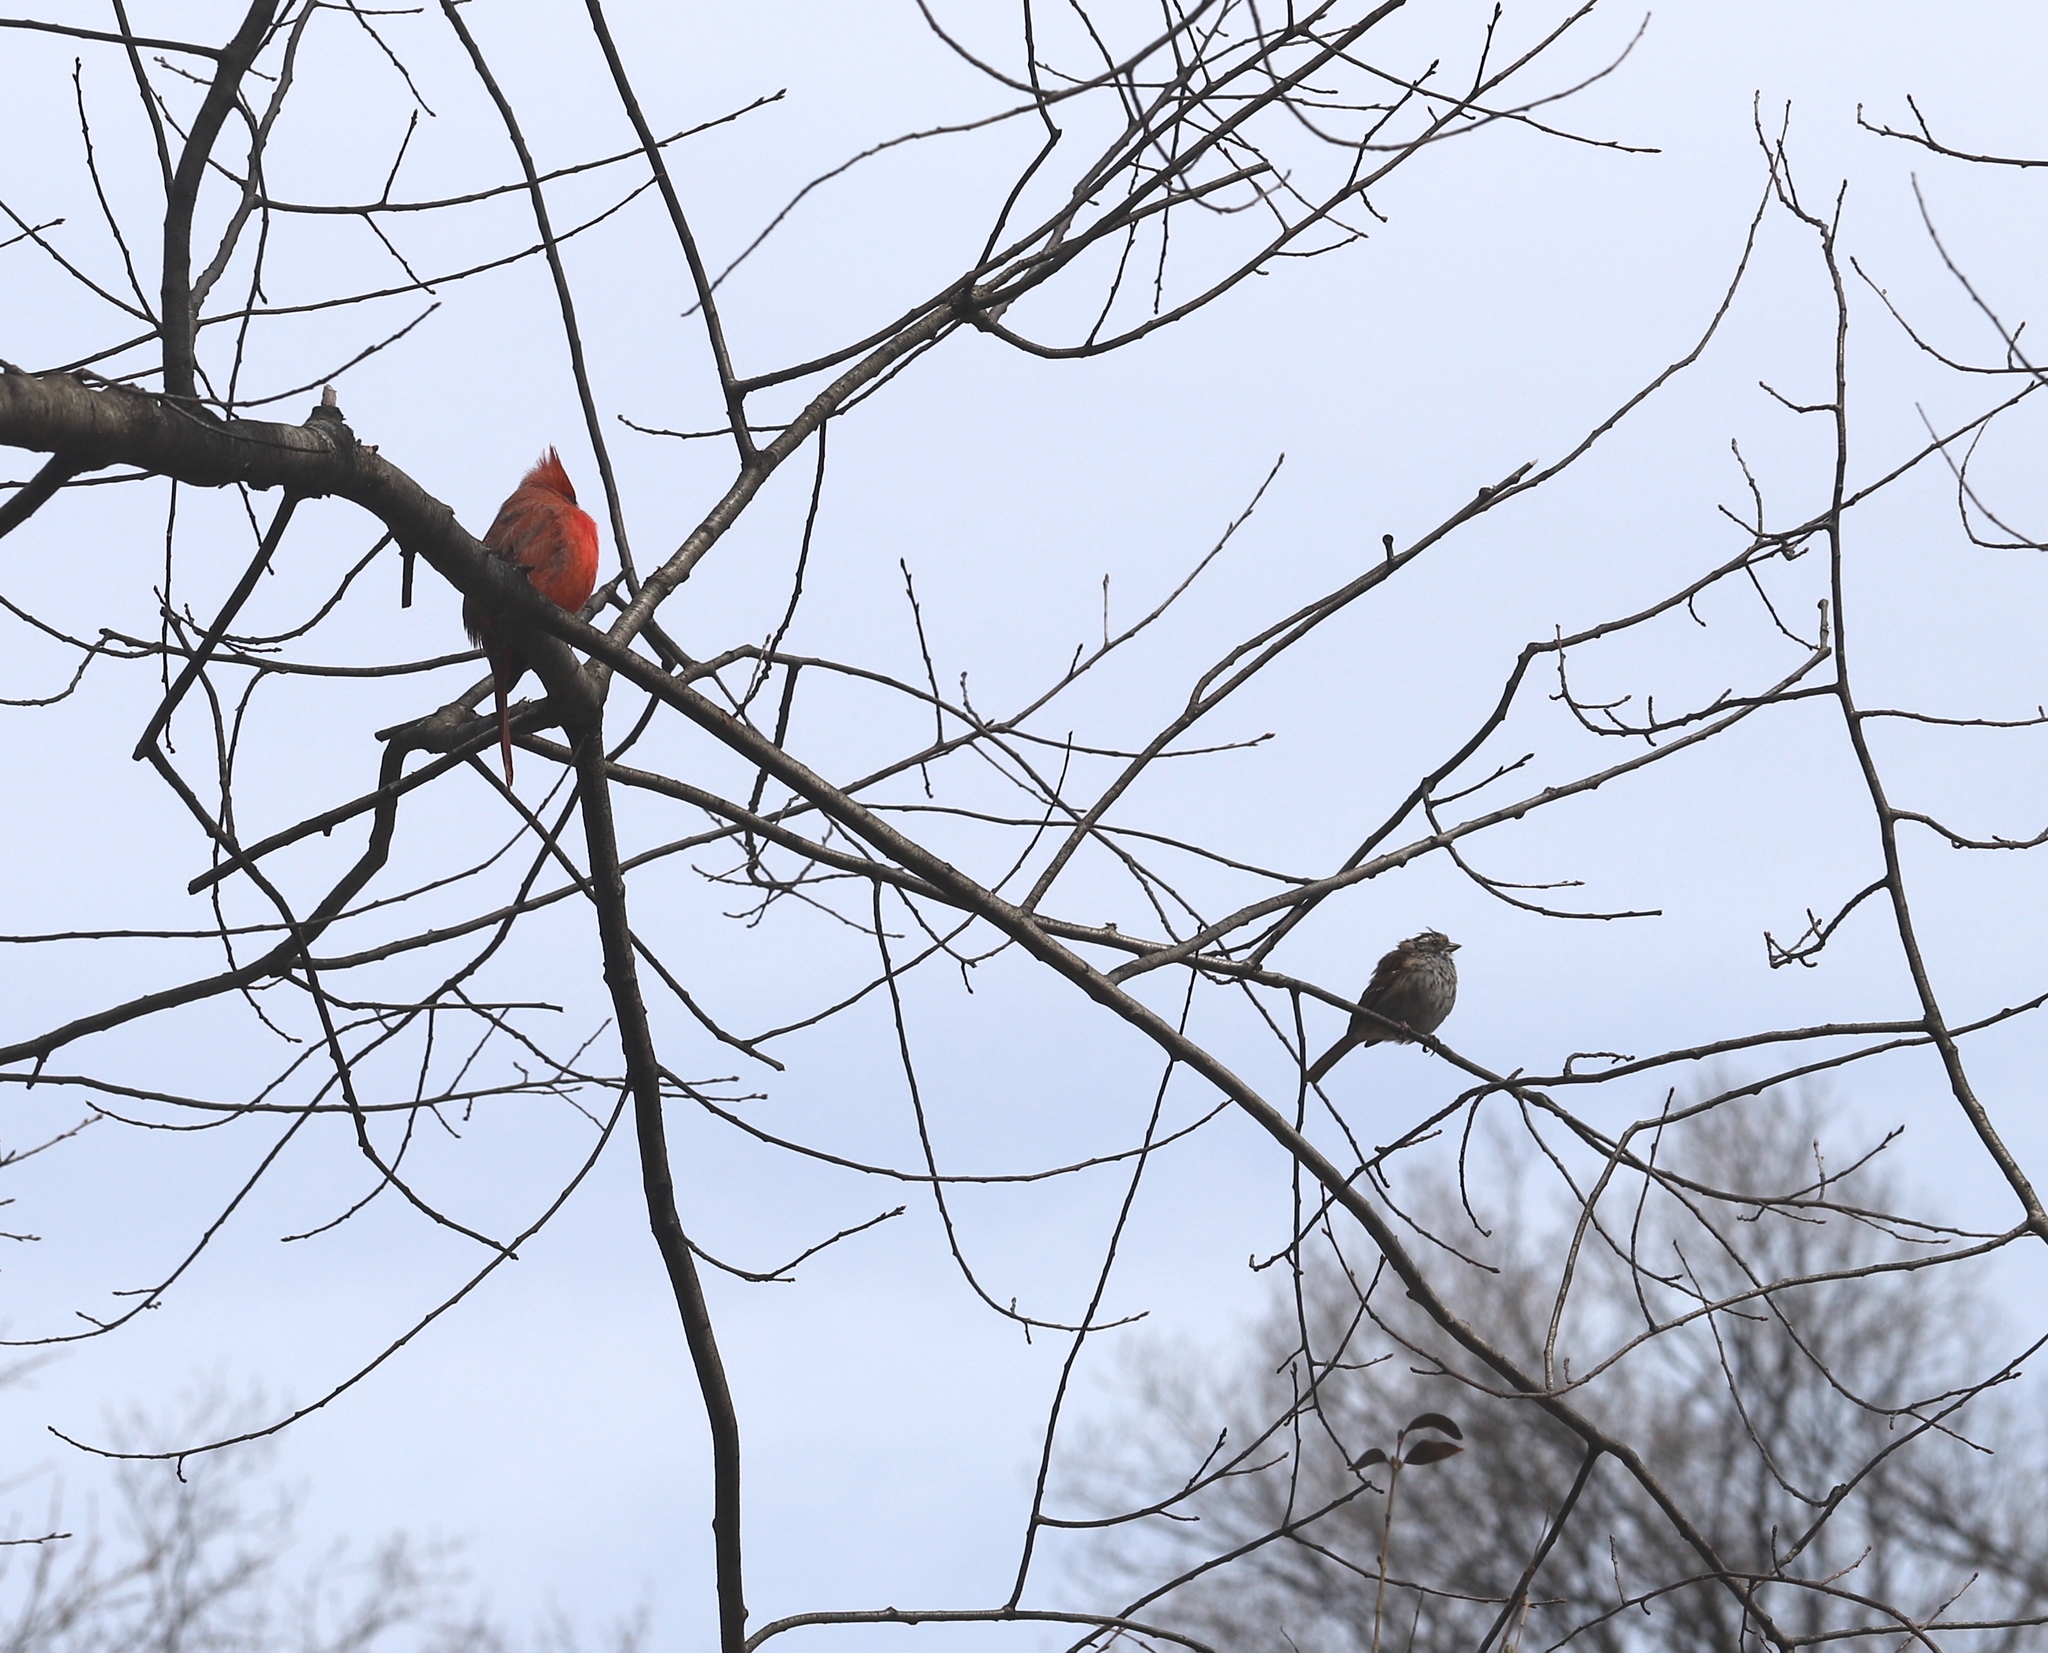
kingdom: Animalia
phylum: Chordata
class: Aves
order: Passeriformes
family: Cardinalidae
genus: Cardinalis
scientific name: Cardinalis cardinalis
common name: Northern cardinal
